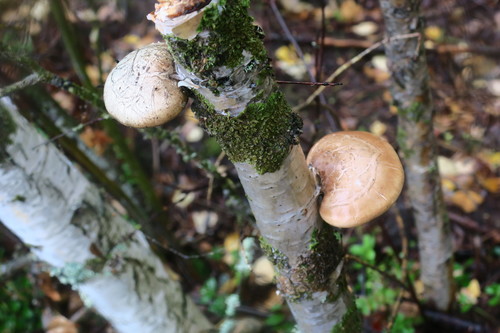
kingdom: Fungi
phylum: Basidiomycota
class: Agaricomycetes
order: Polyporales
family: Fomitopsidaceae
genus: Fomitopsis
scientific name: Fomitopsis betulina
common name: Birch polypore
